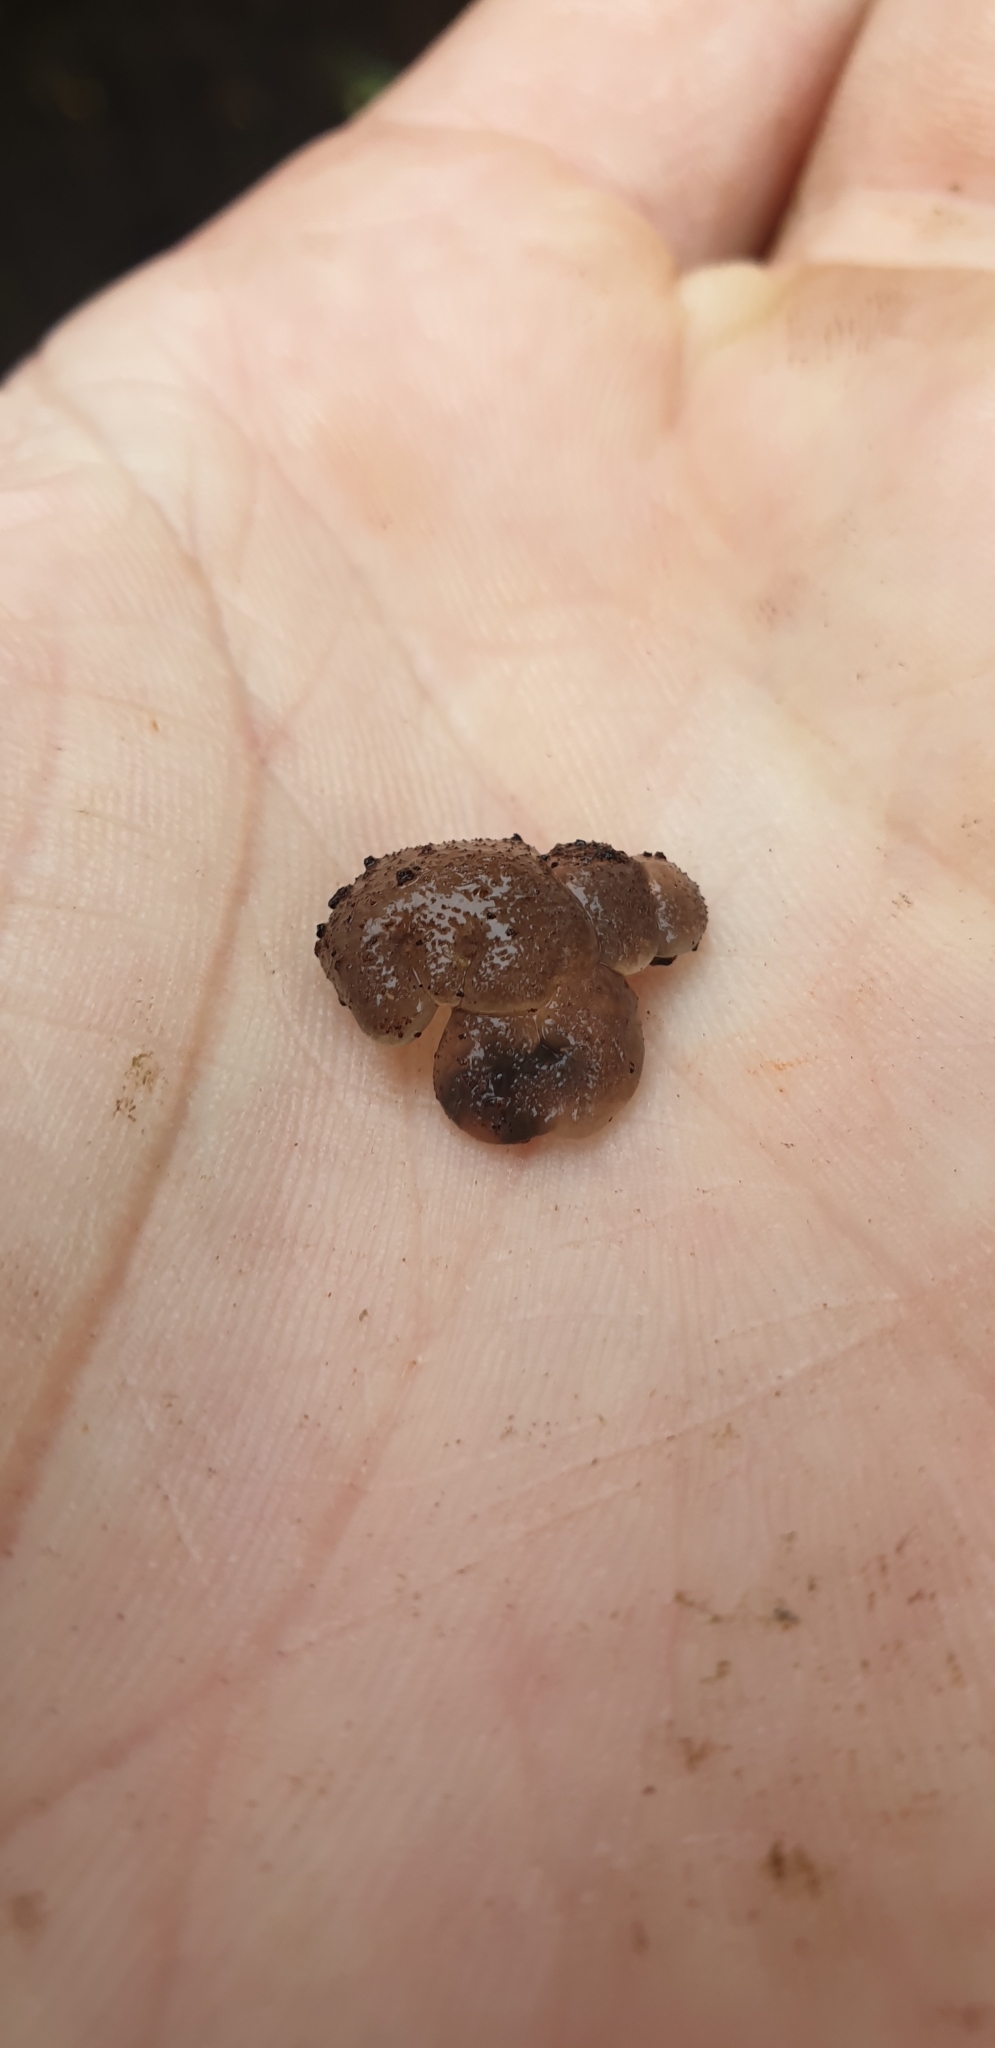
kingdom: Fungi
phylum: Basidiomycota
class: Agaricomycetes
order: Auriculariales
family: Auriculariaceae
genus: Tremellochaete
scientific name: Tremellochaete
